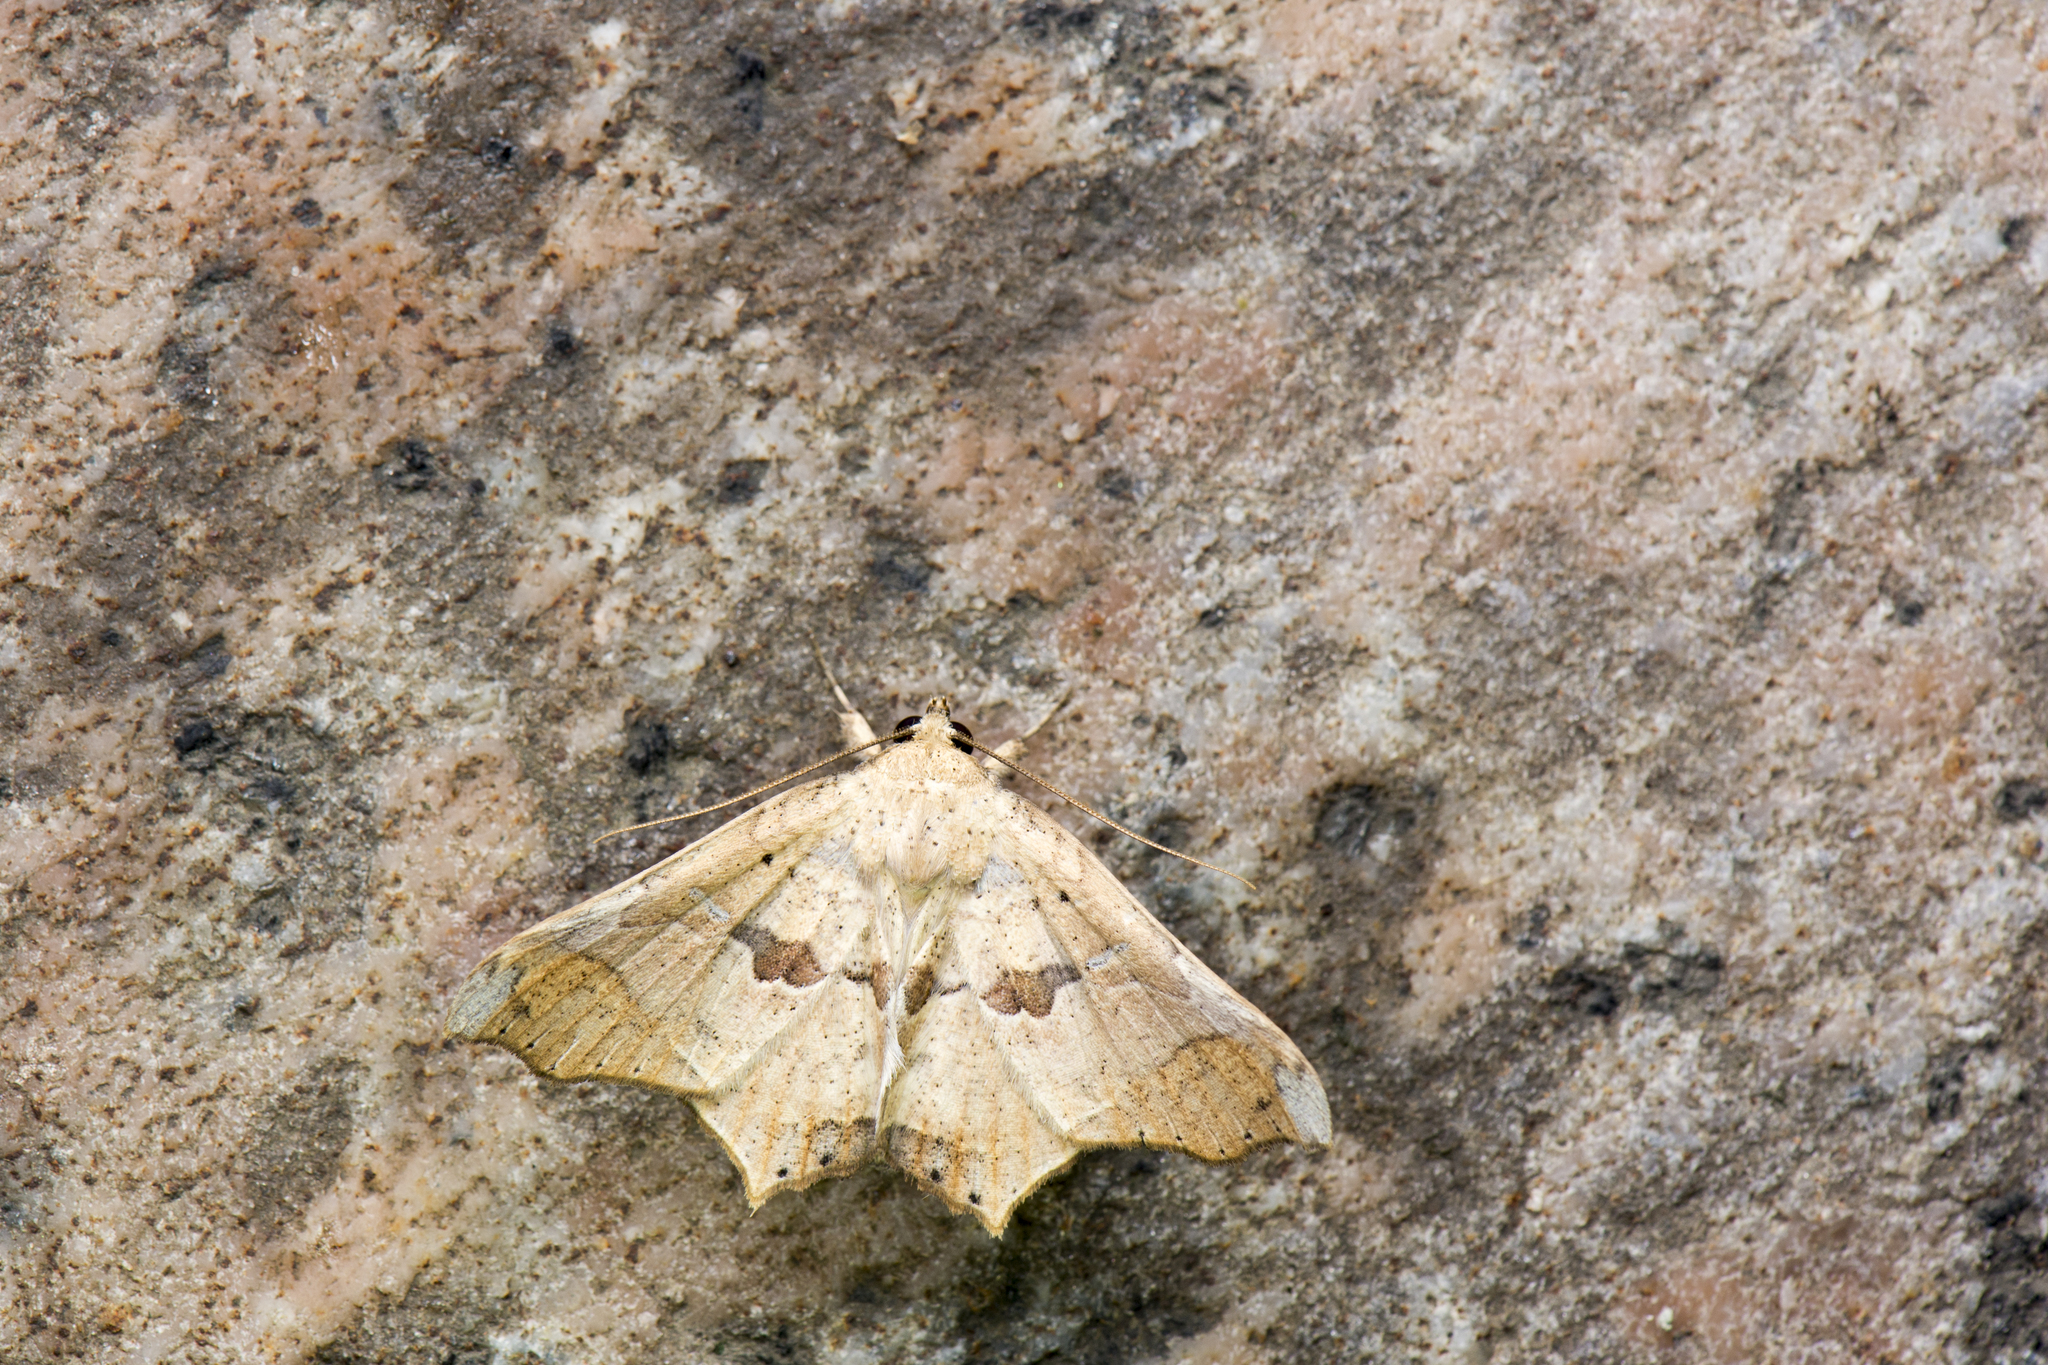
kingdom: Animalia
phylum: Arthropoda
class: Insecta
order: Lepidoptera
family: Erebidae
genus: Semiothisops
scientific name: Semiothisops macariata
